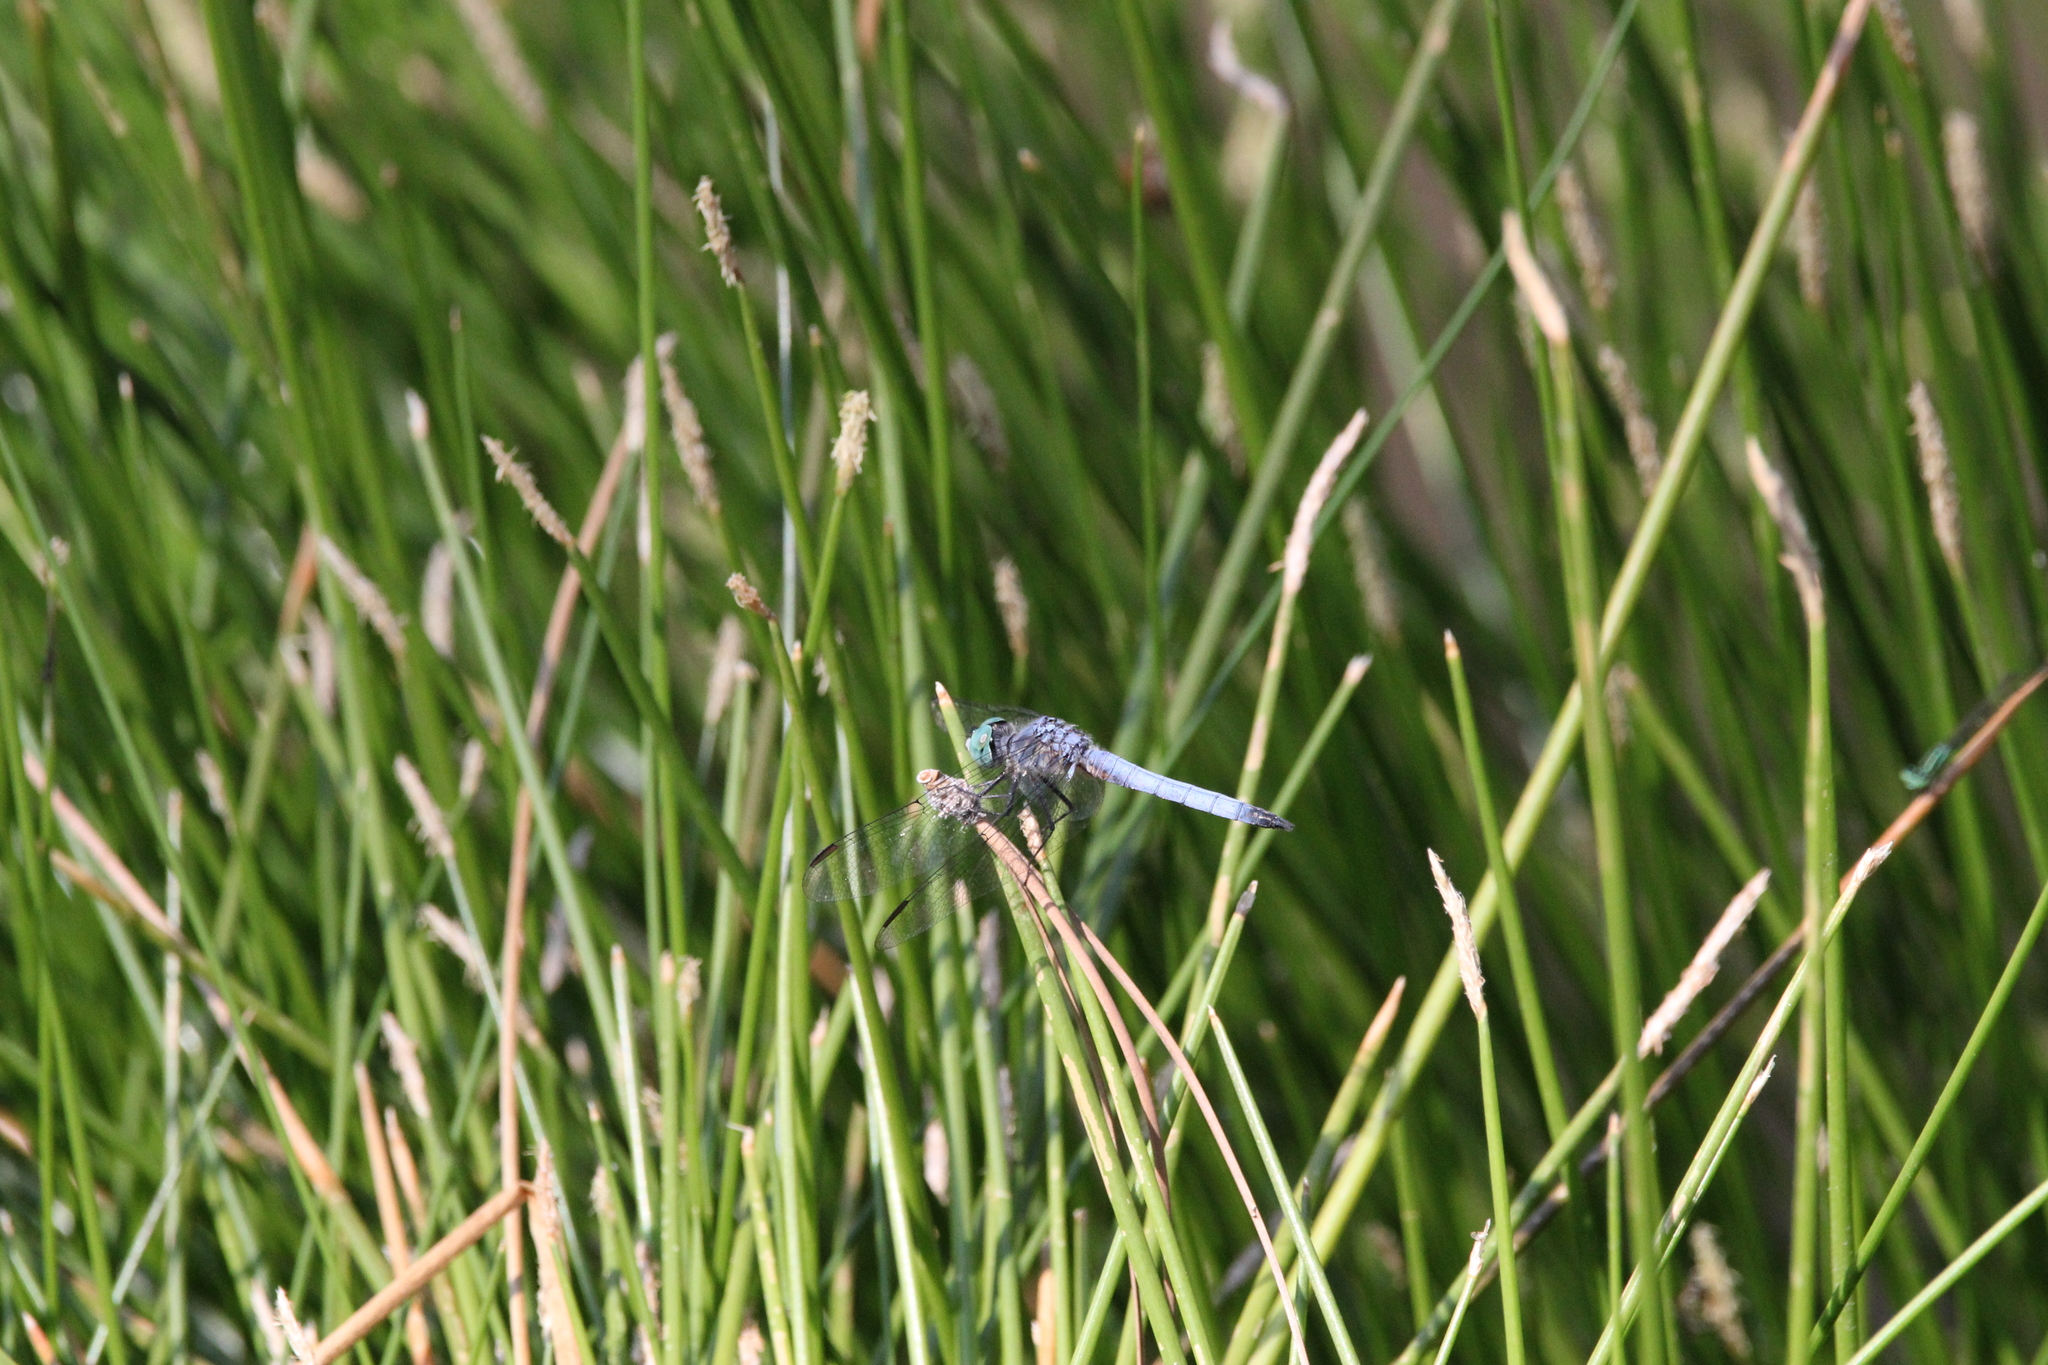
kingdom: Animalia
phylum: Arthropoda
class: Insecta
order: Odonata
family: Libellulidae
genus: Pachydiplax
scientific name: Pachydiplax longipennis
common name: Blue dasher
